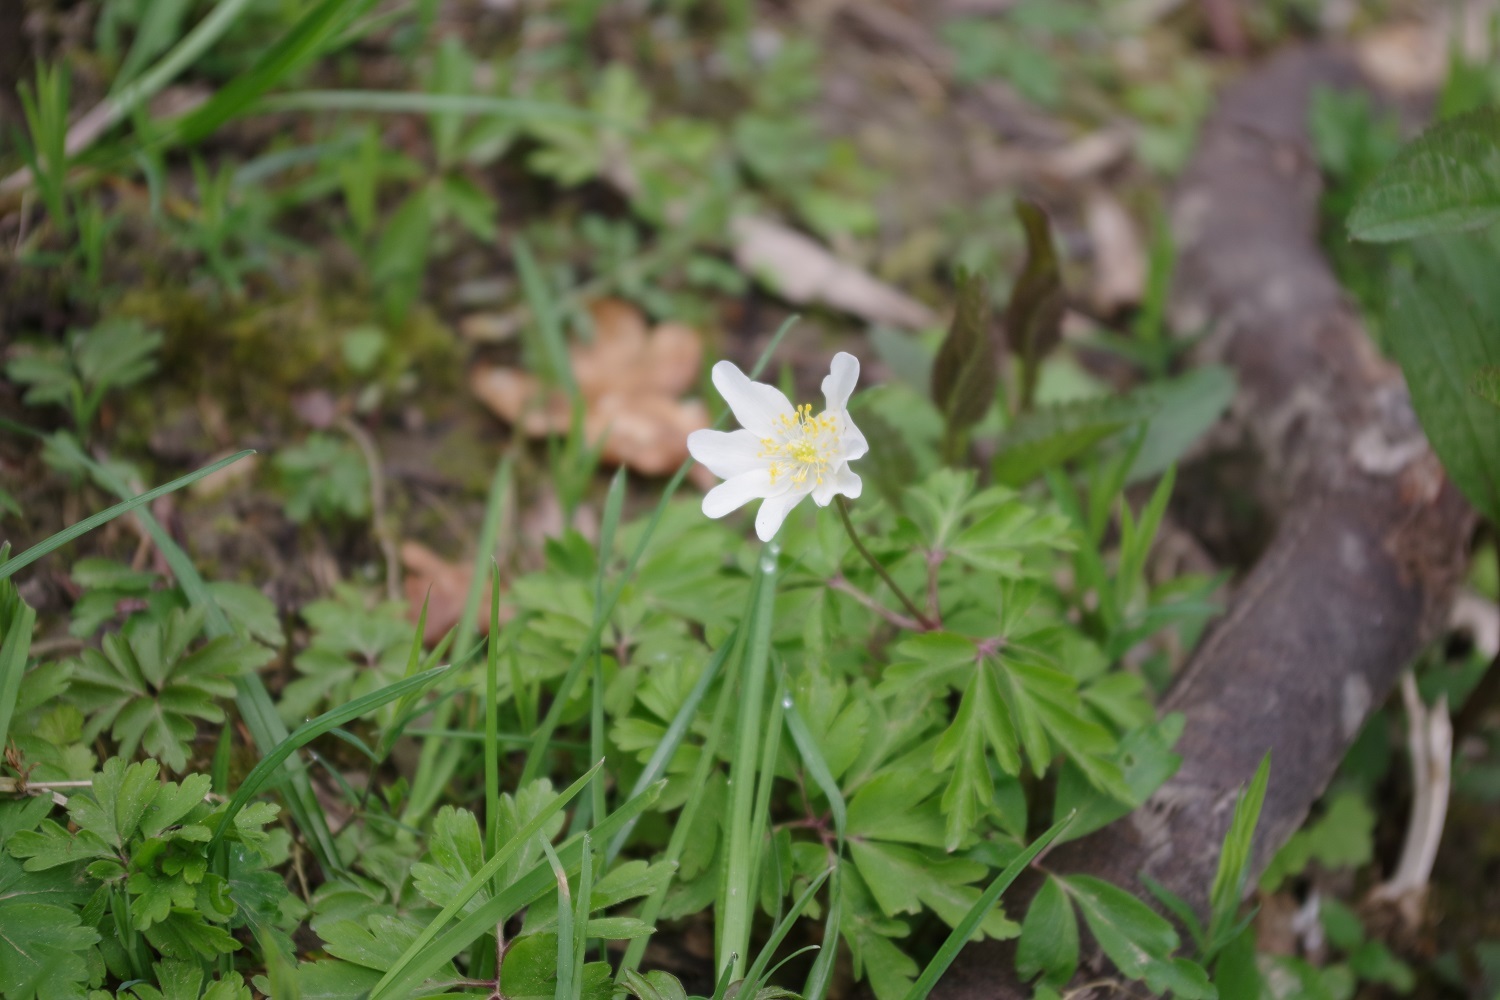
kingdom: Plantae
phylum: Tracheophyta
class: Magnoliopsida
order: Ranunculales
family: Ranunculaceae
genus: Anemone
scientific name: Anemone nemorosa
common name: Wood anemone
